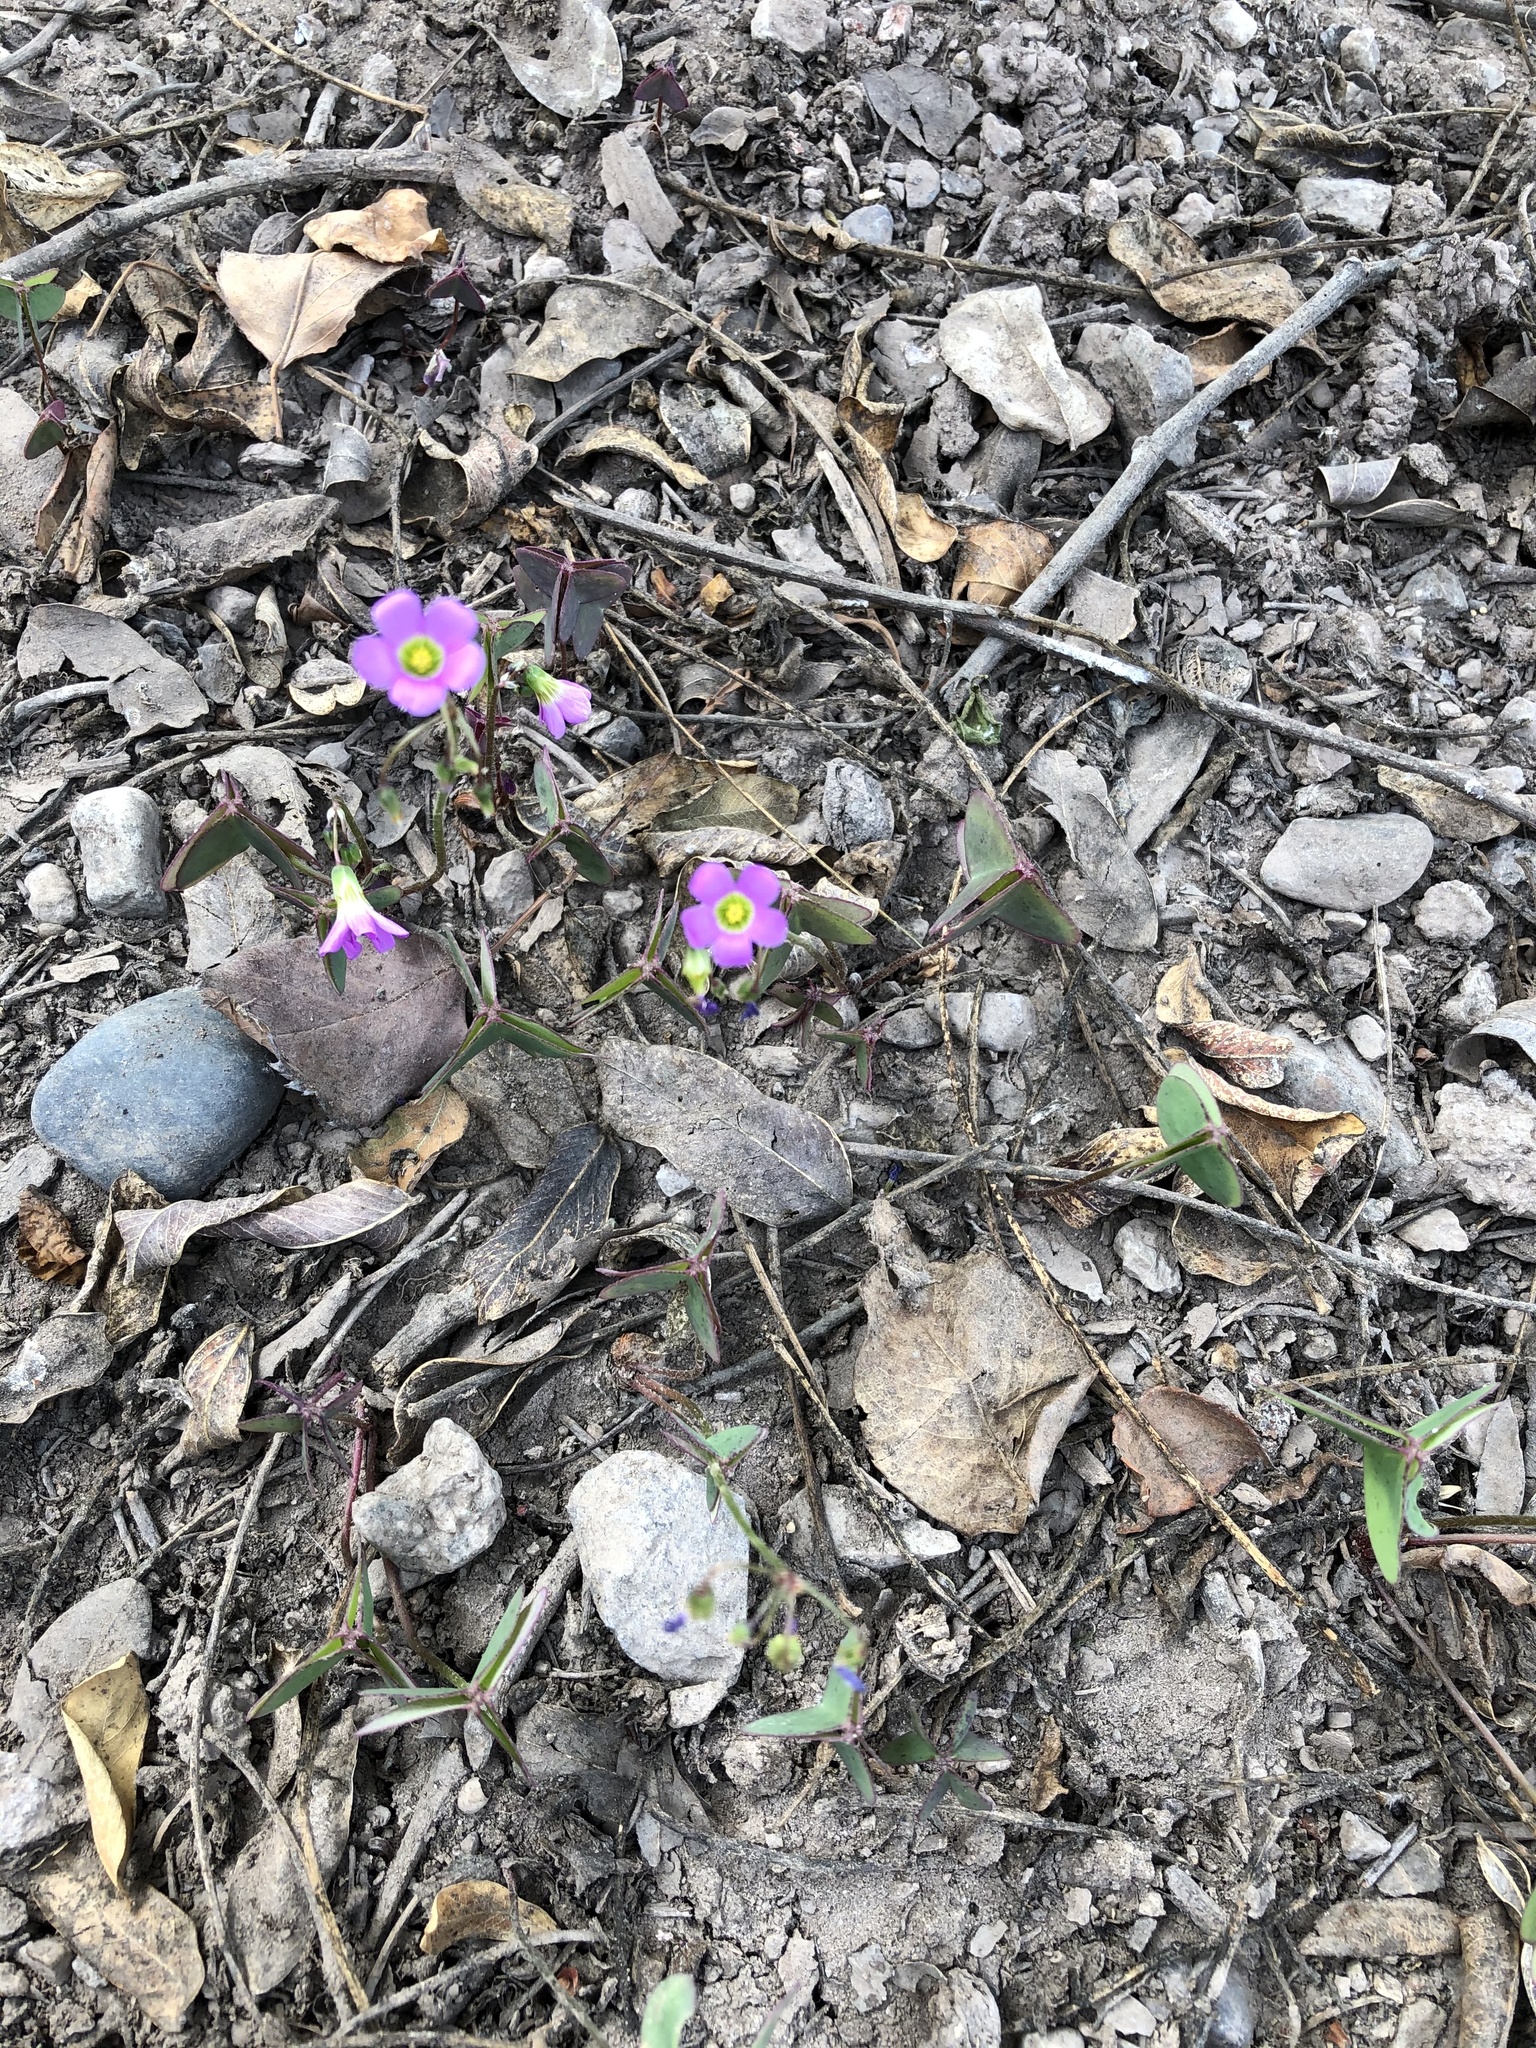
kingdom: Plantae
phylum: Tracheophyta
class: Magnoliopsida
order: Oxalidales
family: Oxalidaceae
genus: Oxalis
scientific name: Oxalis latifolia
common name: Garden pink-sorrel
